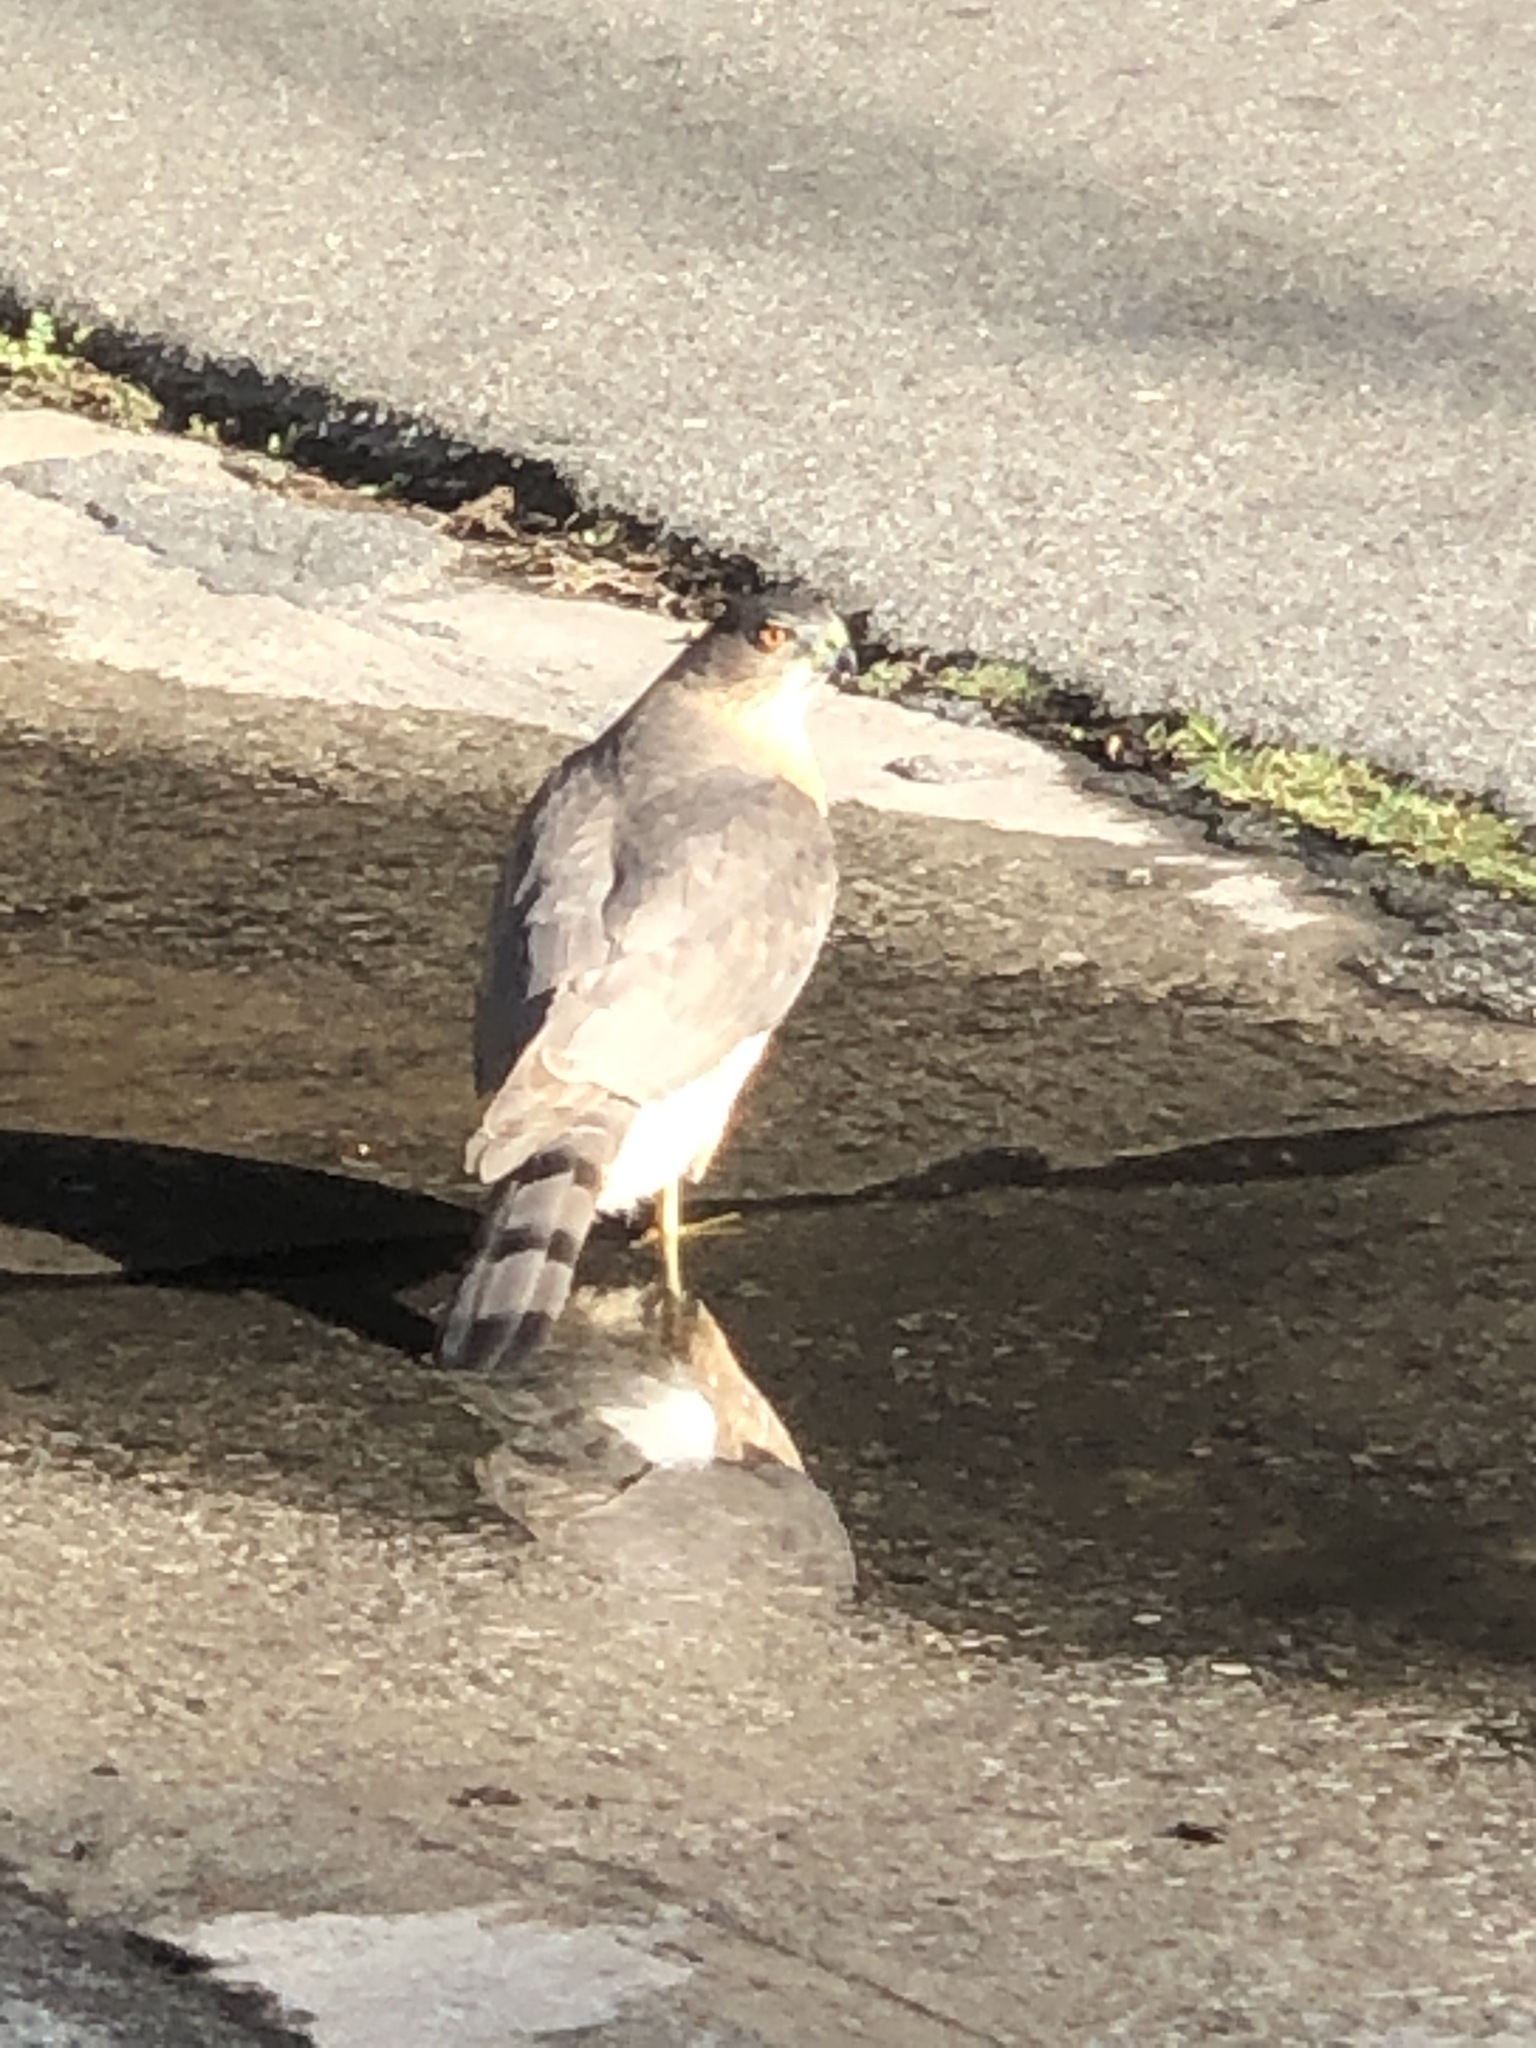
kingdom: Animalia
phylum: Chordata
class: Aves
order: Accipitriformes
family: Accipitridae
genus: Accipiter
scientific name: Accipiter cooperii
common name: Cooper's hawk
